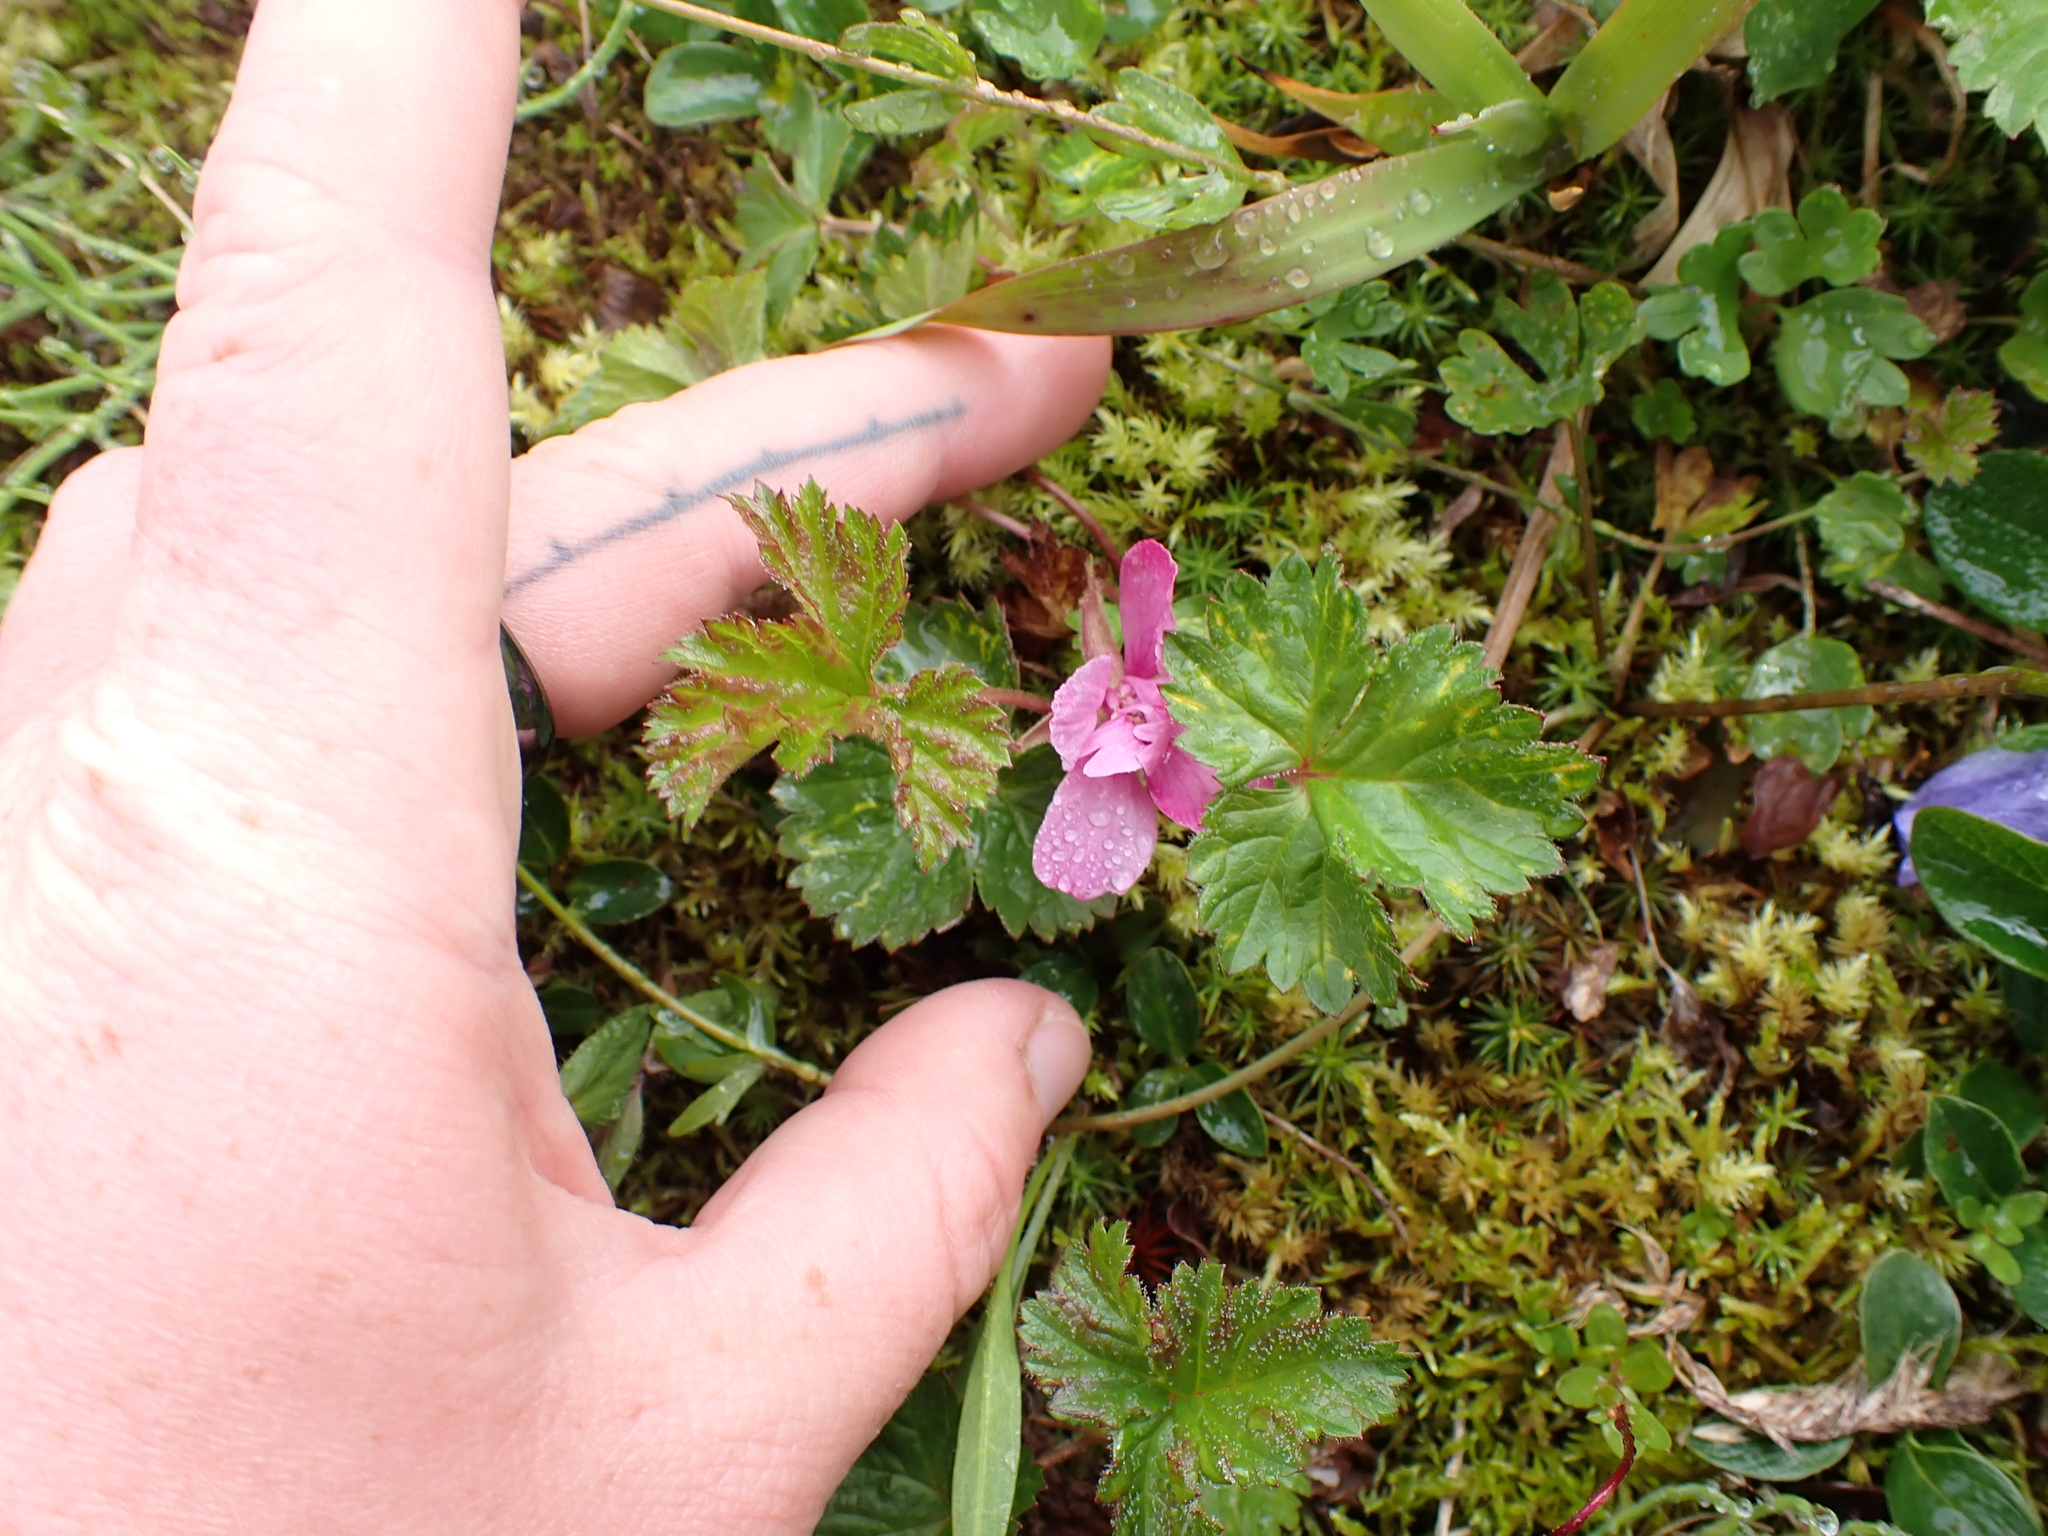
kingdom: Plantae
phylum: Tracheophyta
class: Magnoliopsida
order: Rosales
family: Rosaceae
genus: Rubus
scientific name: Rubus arcticus
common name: Arctic bramble
